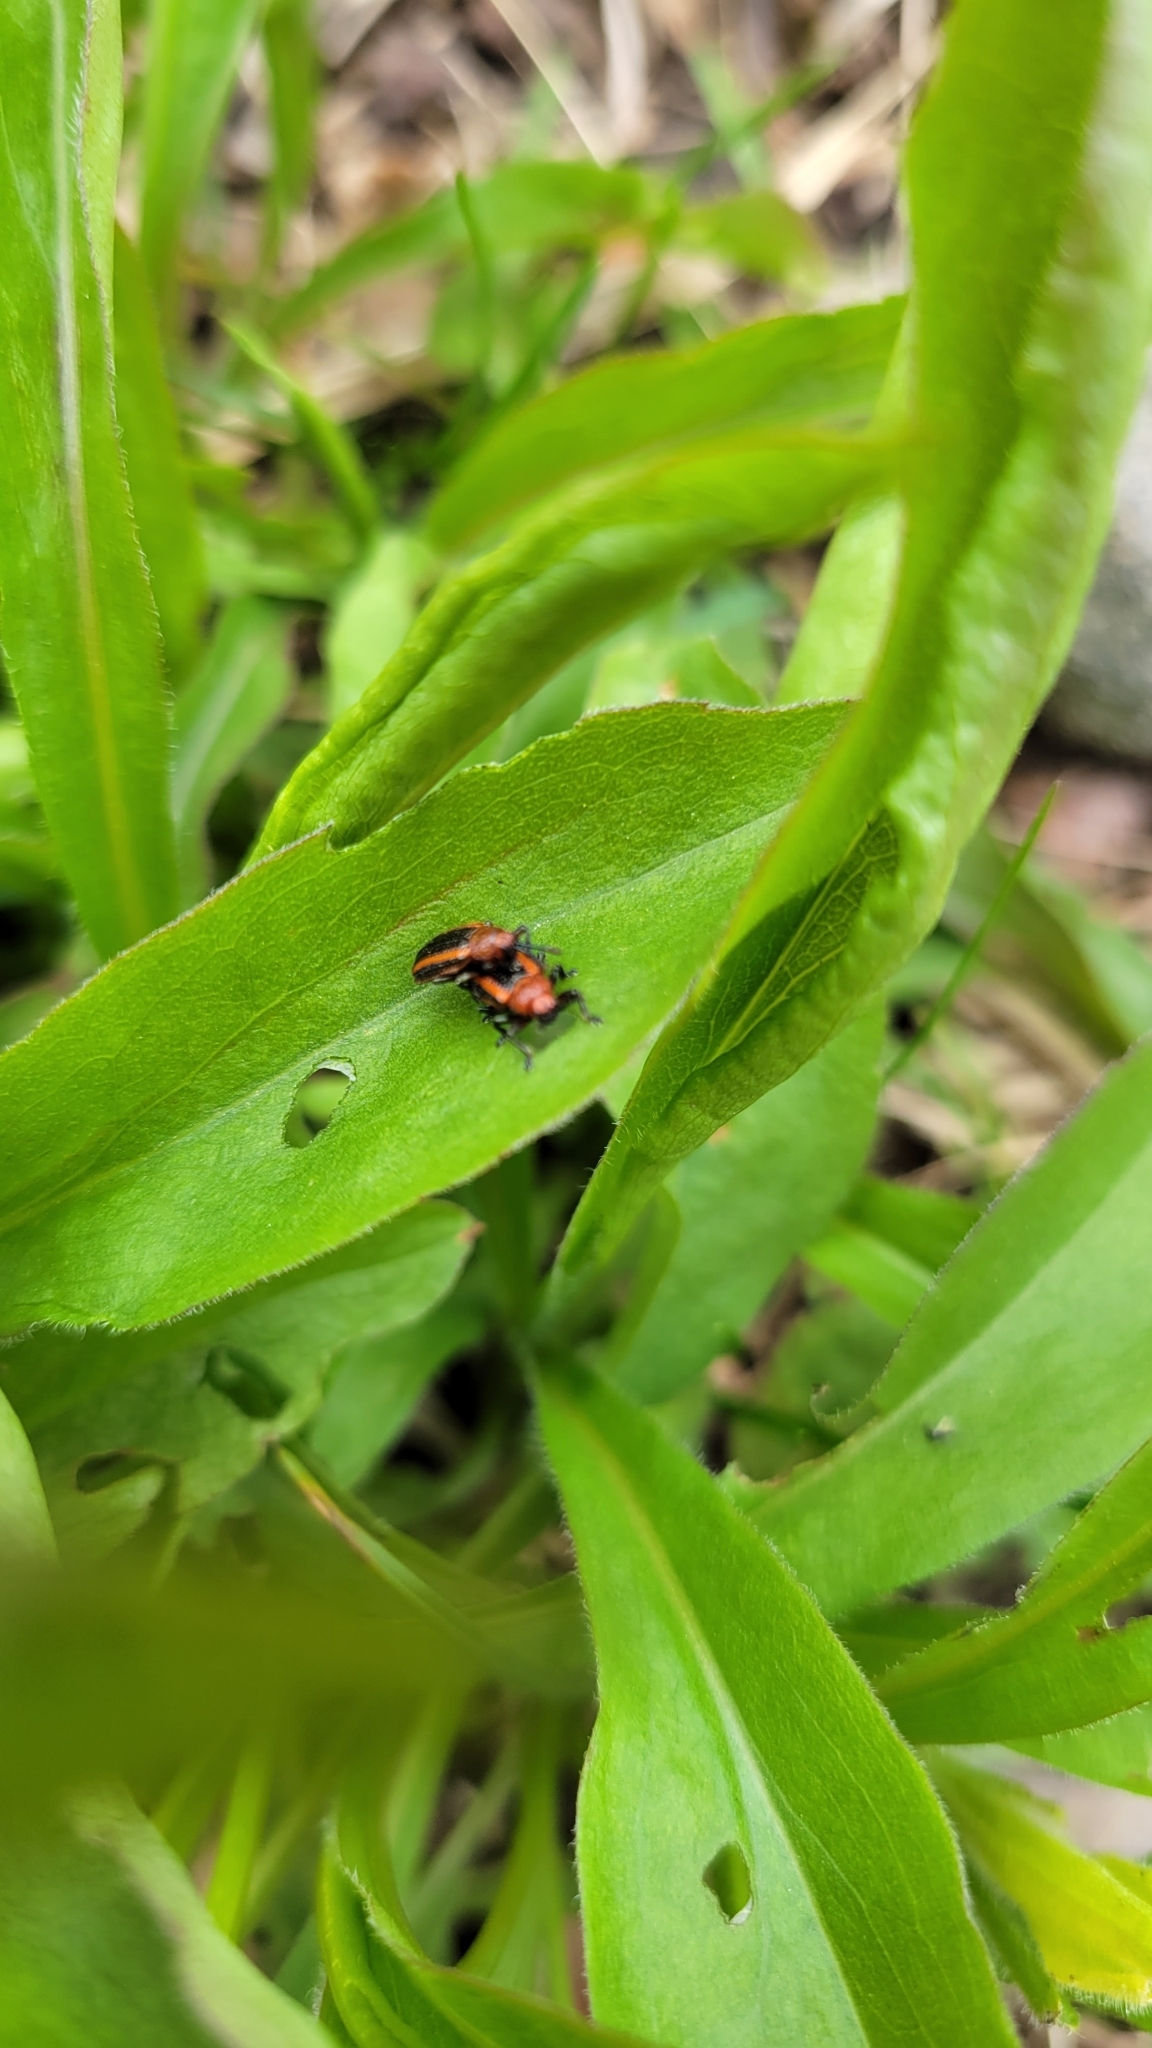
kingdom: Animalia
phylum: Arthropoda
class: Insecta
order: Coleoptera
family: Chrysomelidae
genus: Microrhopala
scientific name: Microrhopala vittata
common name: Goldenrod leaf miner beetle
